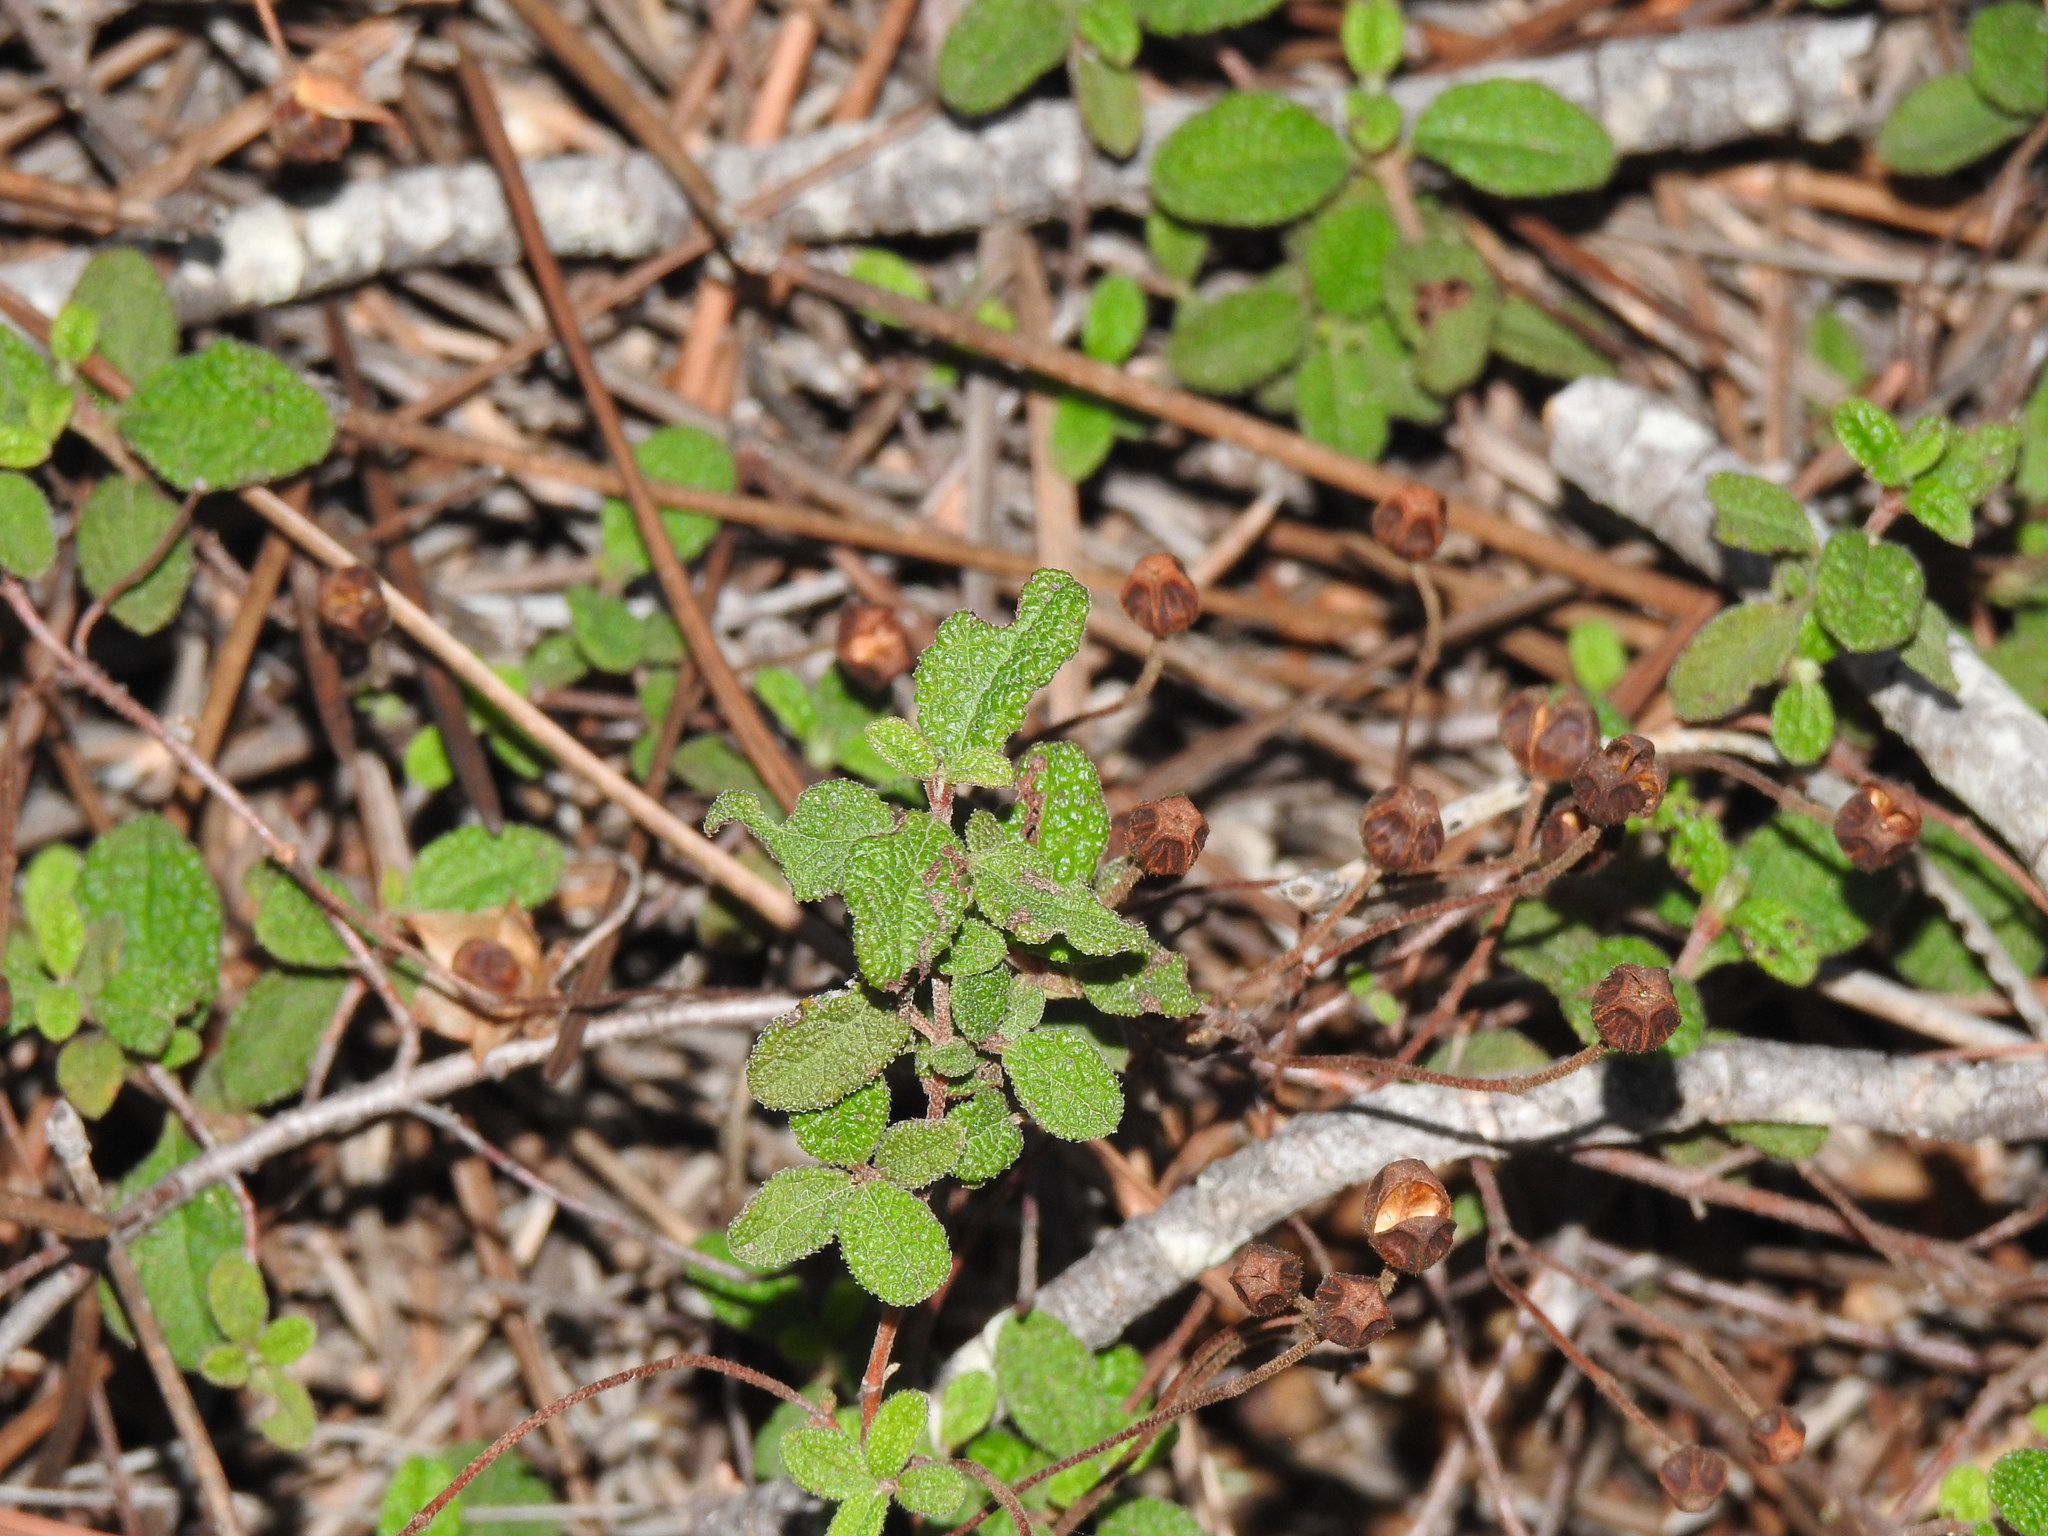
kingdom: Plantae
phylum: Tracheophyta
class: Magnoliopsida
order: Malvales
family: Cistaceae
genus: Cistus
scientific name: Cistus salviifolius
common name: Salvia cistus
